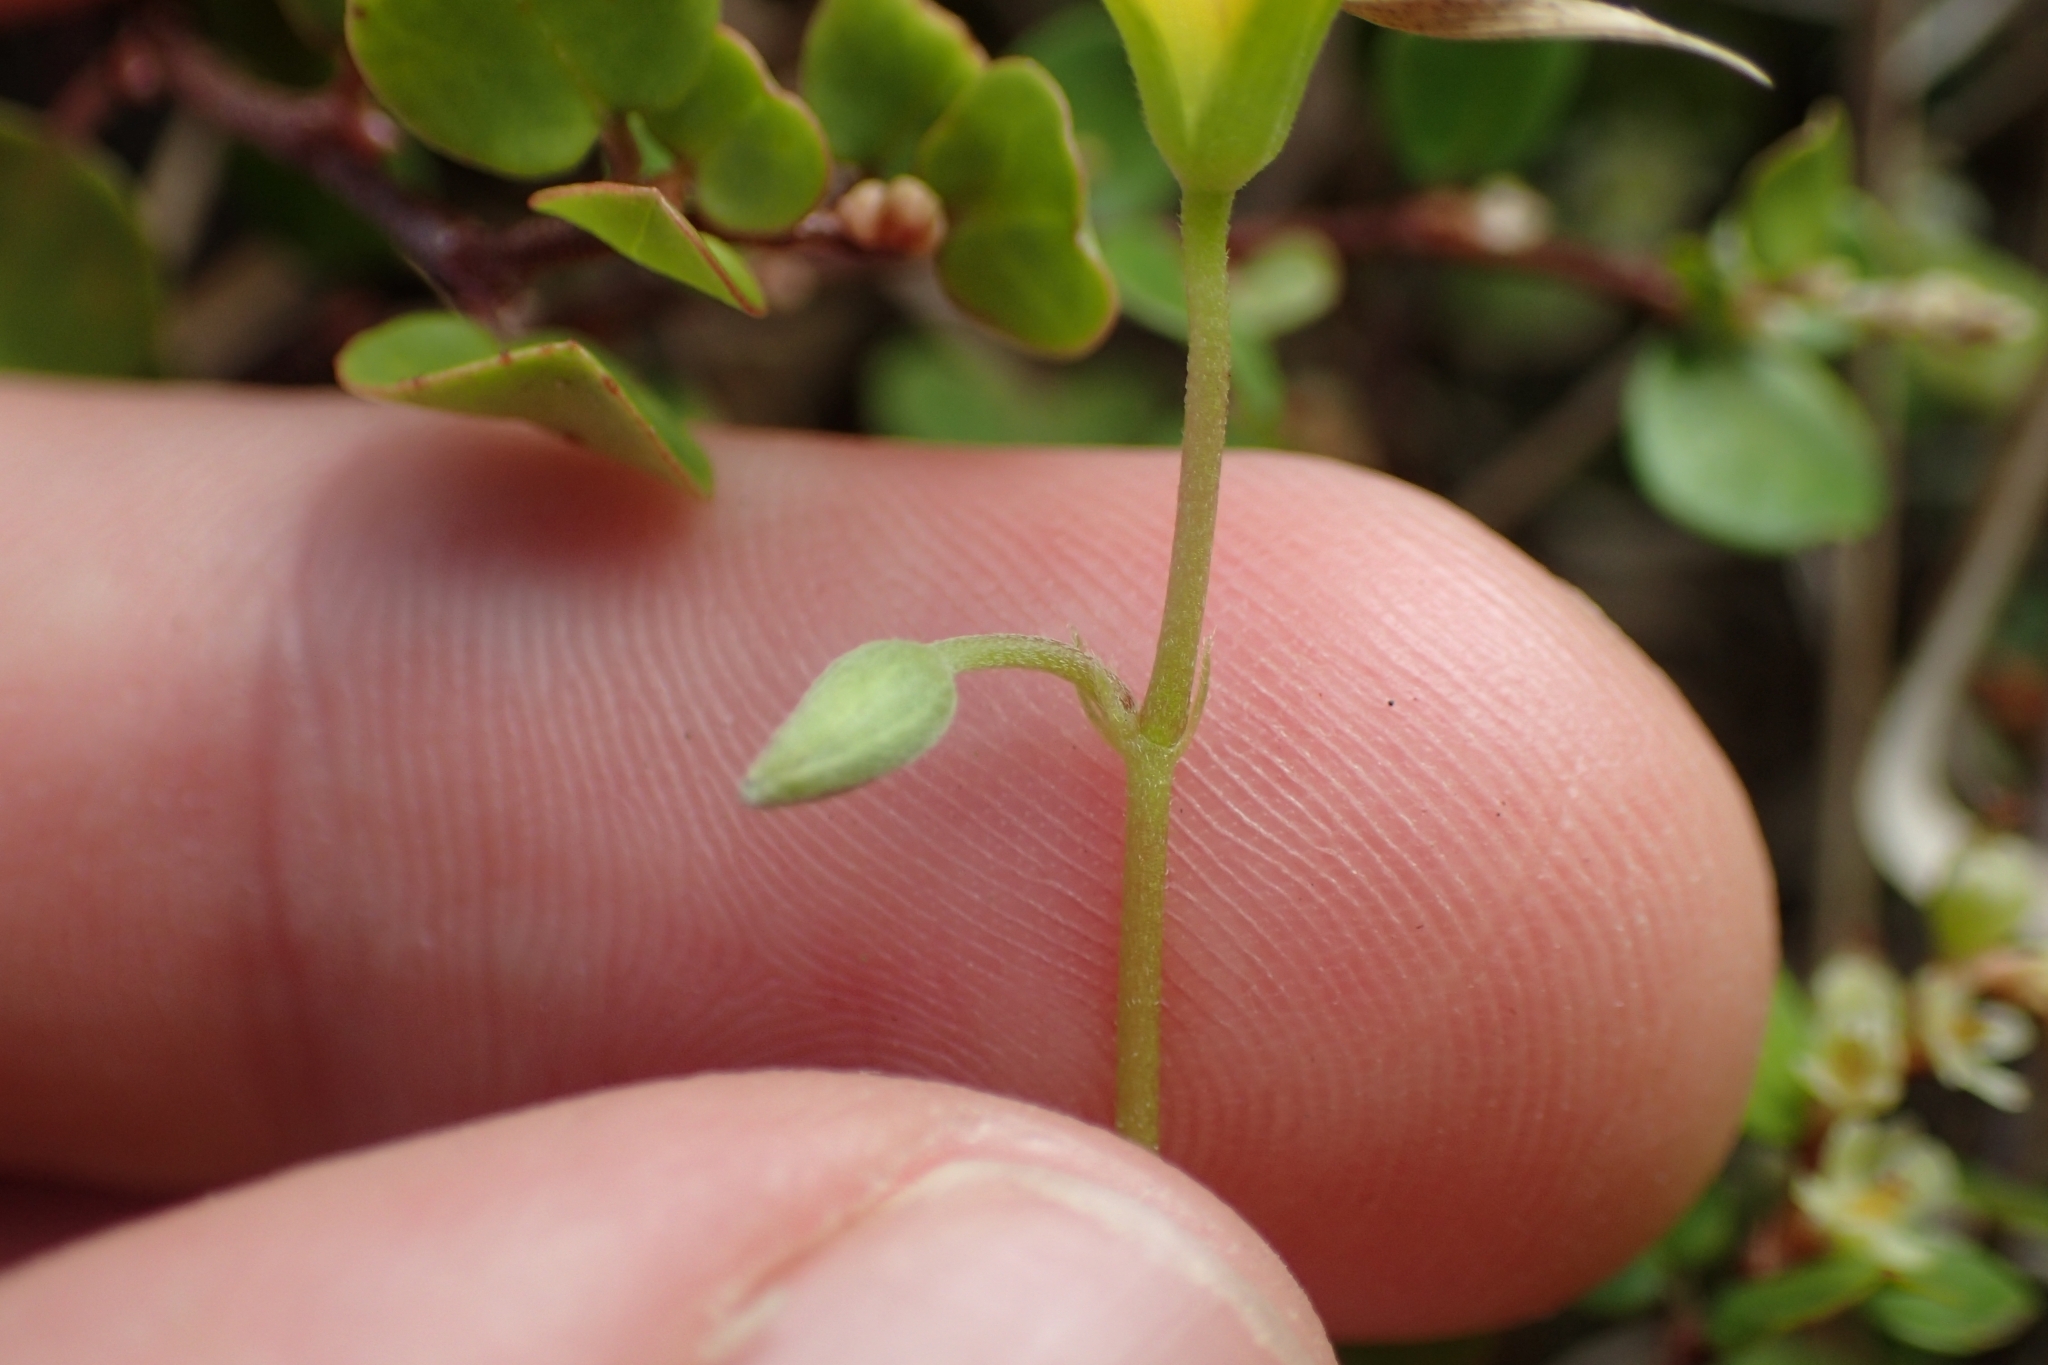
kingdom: Plantae
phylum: Tracheophyta
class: Magnoliopsida
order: Oxalidales
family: Oxalidaceae
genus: Oxalis
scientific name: Oxalis rubens
